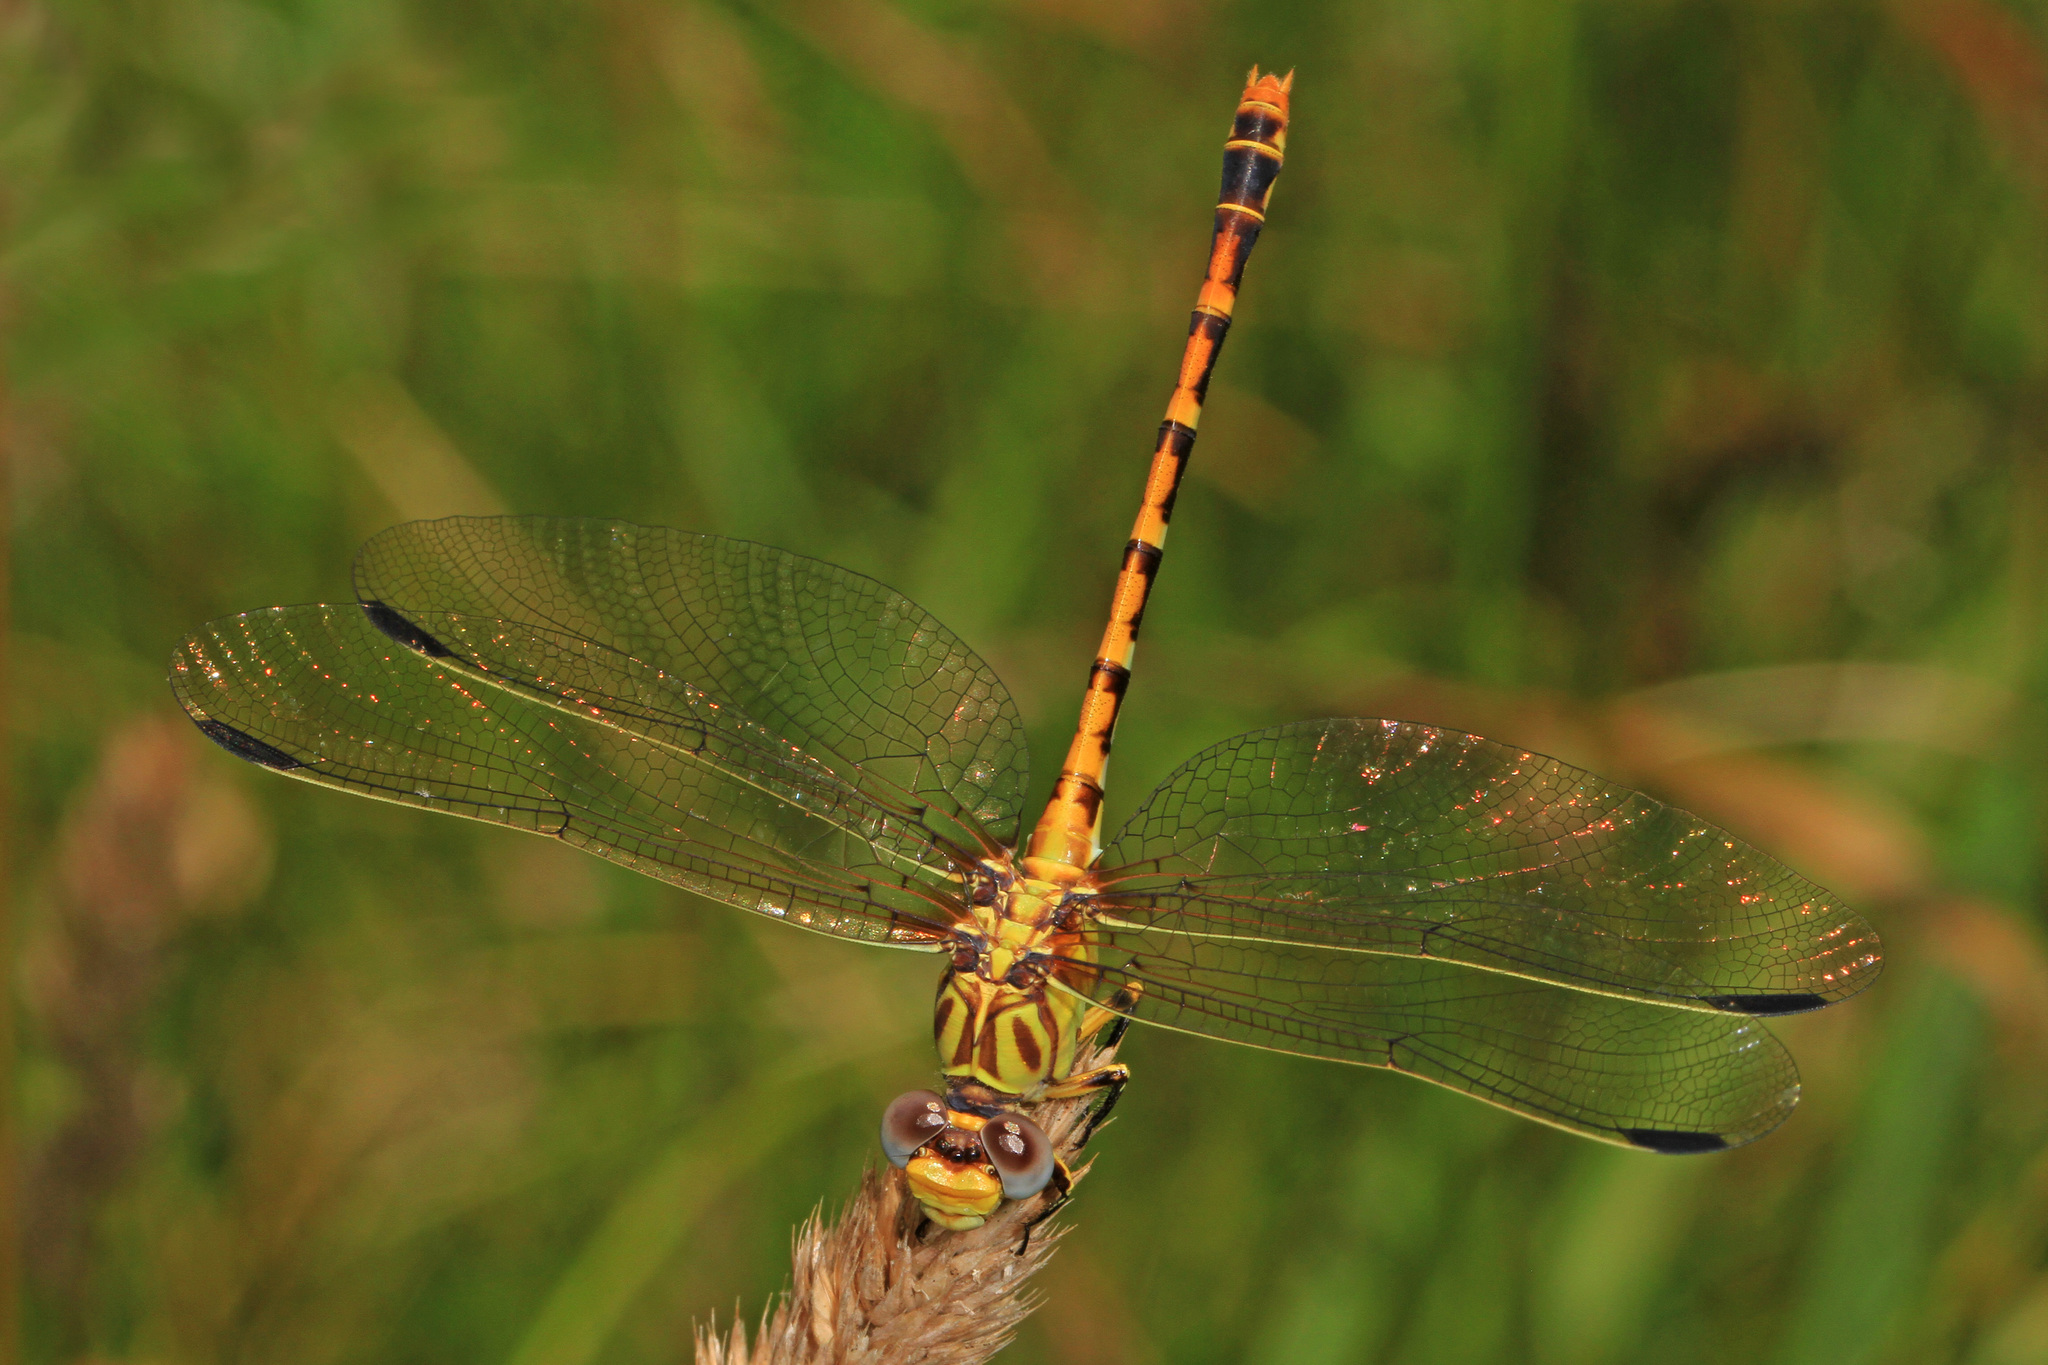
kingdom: Animalia
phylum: Arthropoda
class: Insecta
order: Odonata
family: Gomphidae
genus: Erpetogomphus
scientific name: Erpetogomphus designatus
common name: Eastern ringtail
